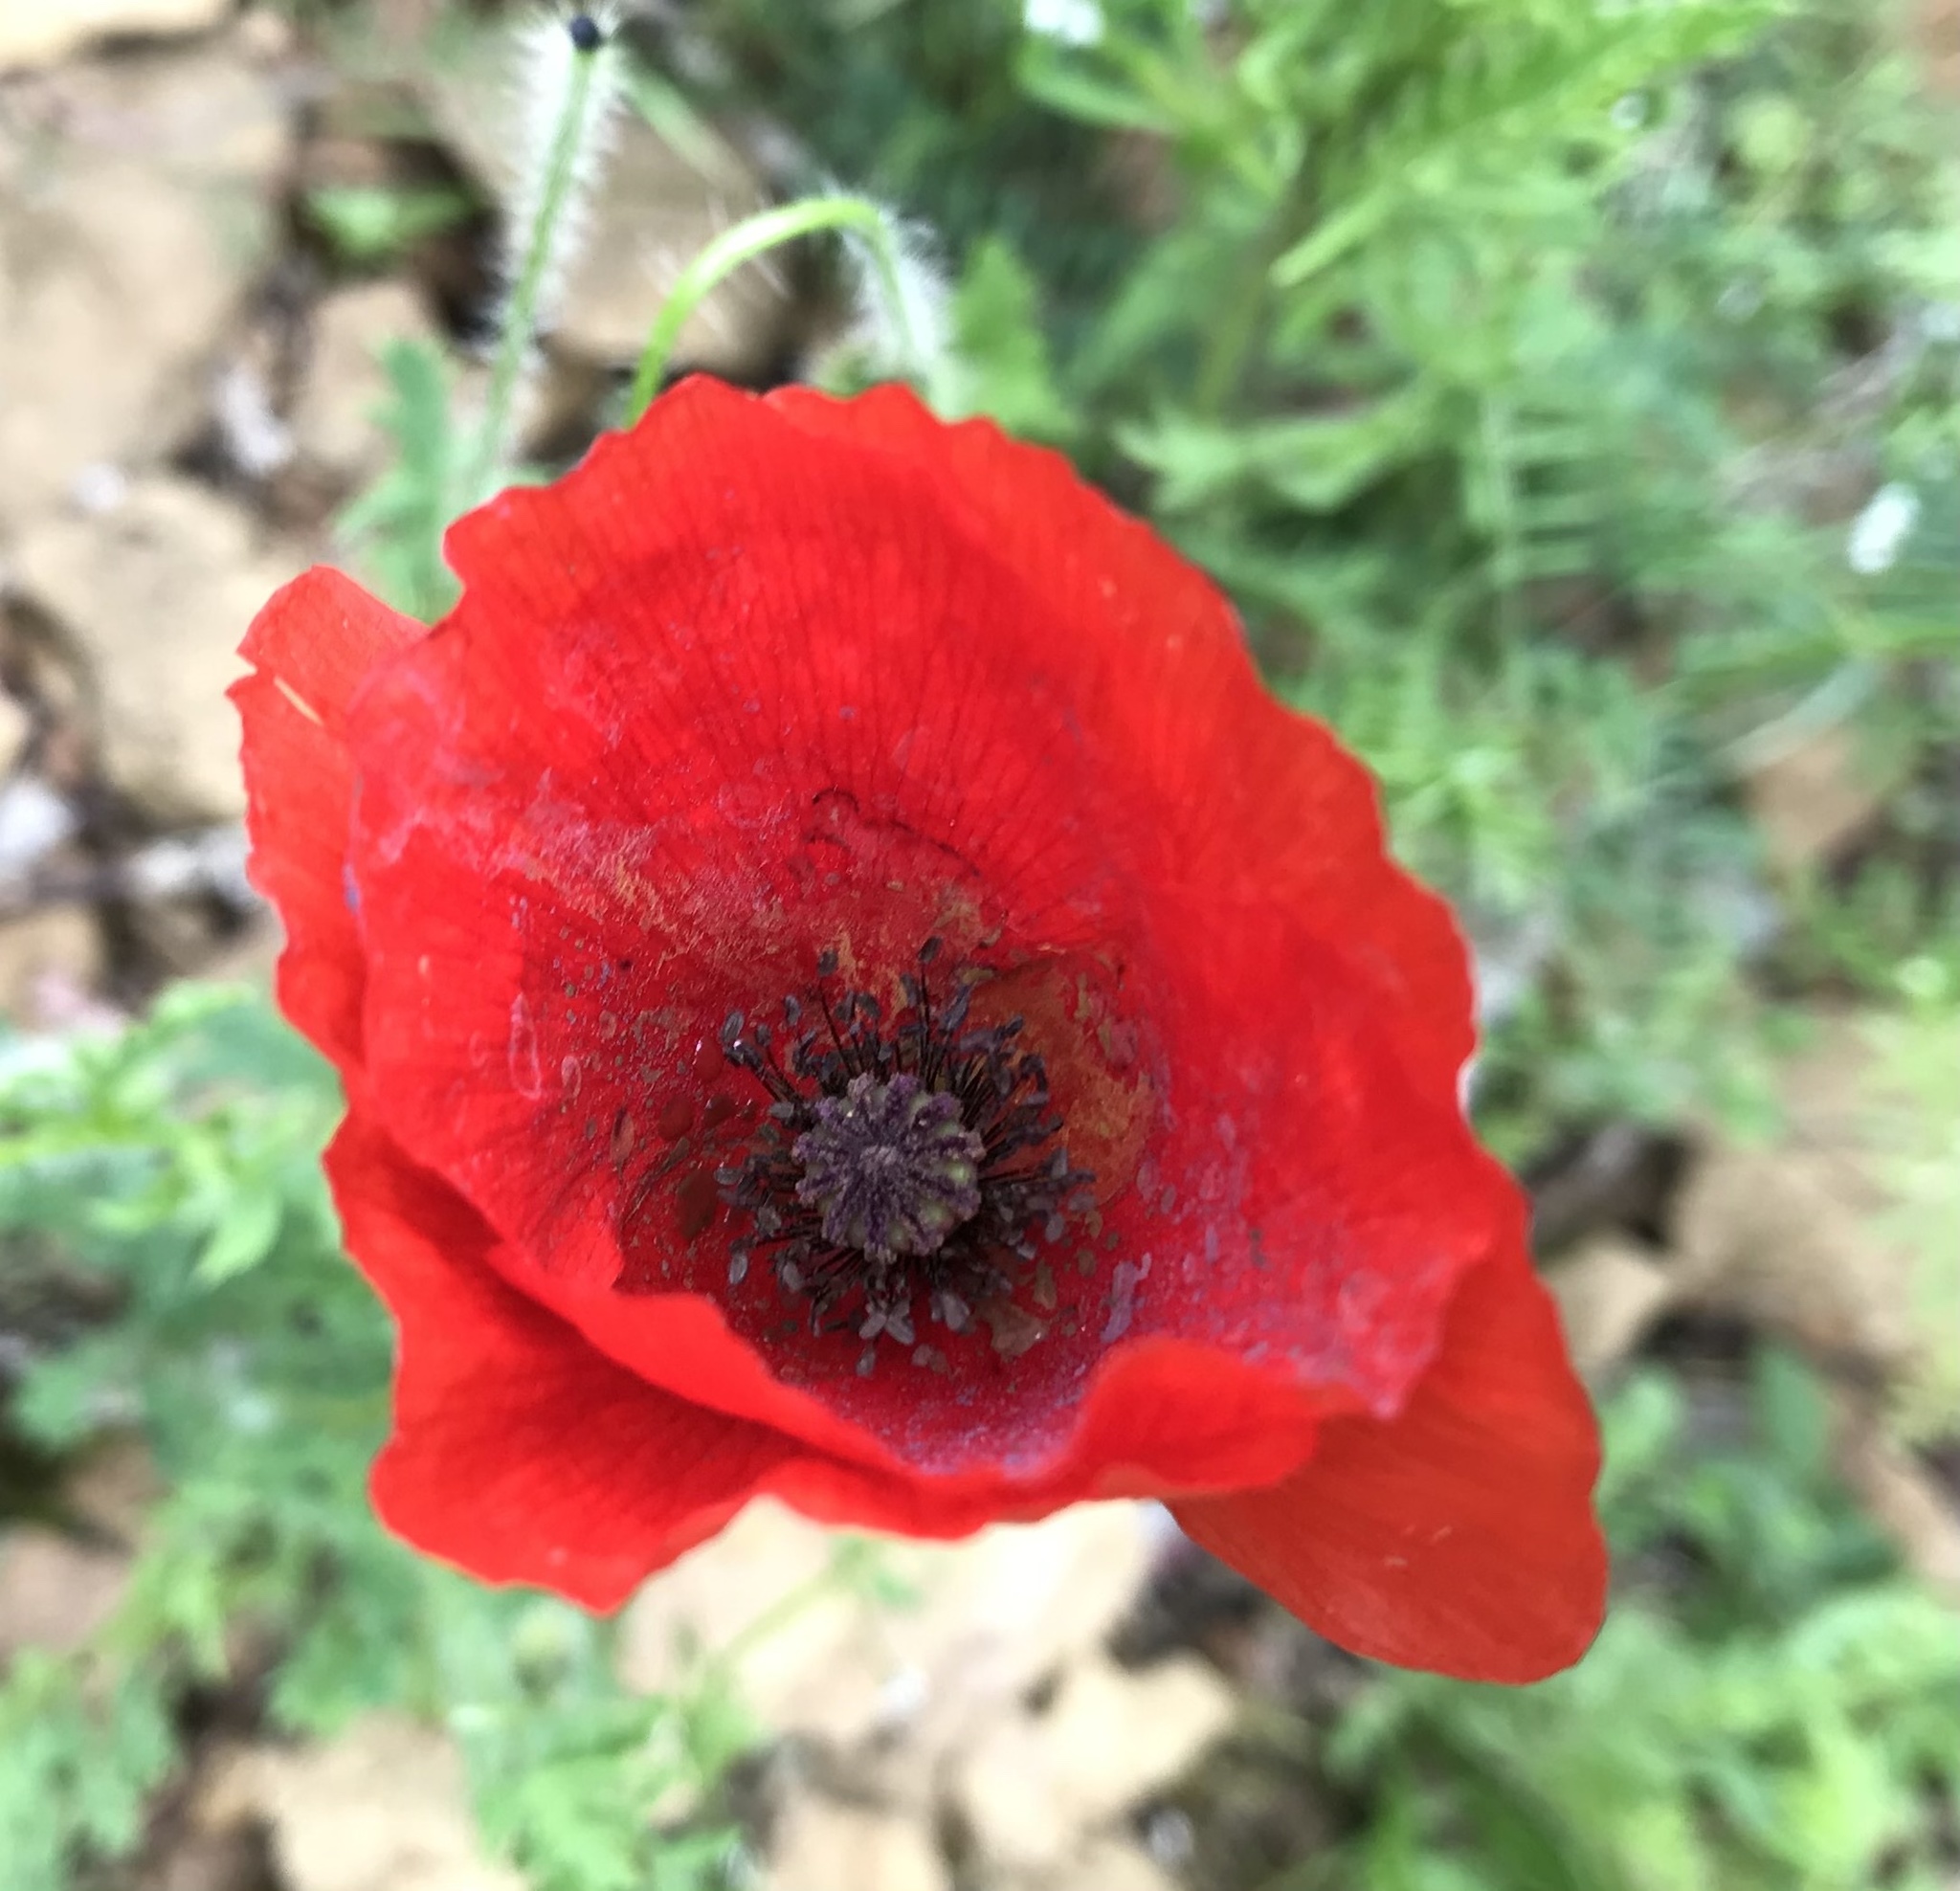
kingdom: Plantae
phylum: Tracheophyta
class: Magnoliopsida
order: Ranunculales
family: Papaveraceae
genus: Papaver
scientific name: Papaver rhoeas
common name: Corn poppy
